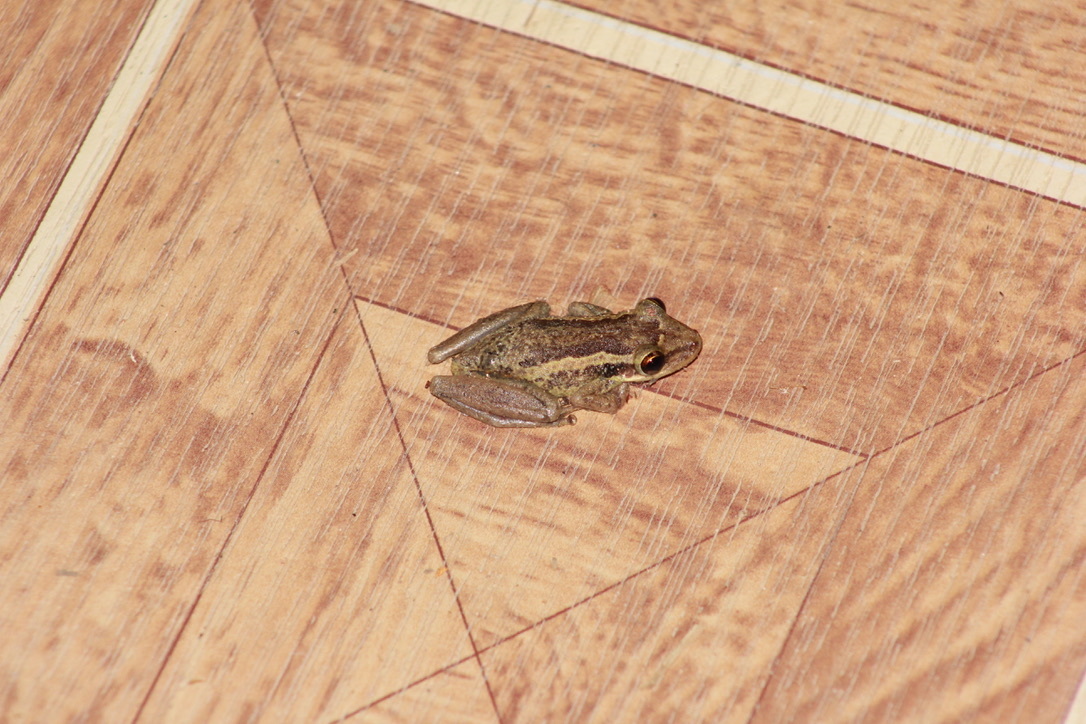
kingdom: Animalia
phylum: Chordata
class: Amphibia
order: Anura
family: Hylidae
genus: Scinax
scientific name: Scinax ruber
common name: Red snouted treefrog
